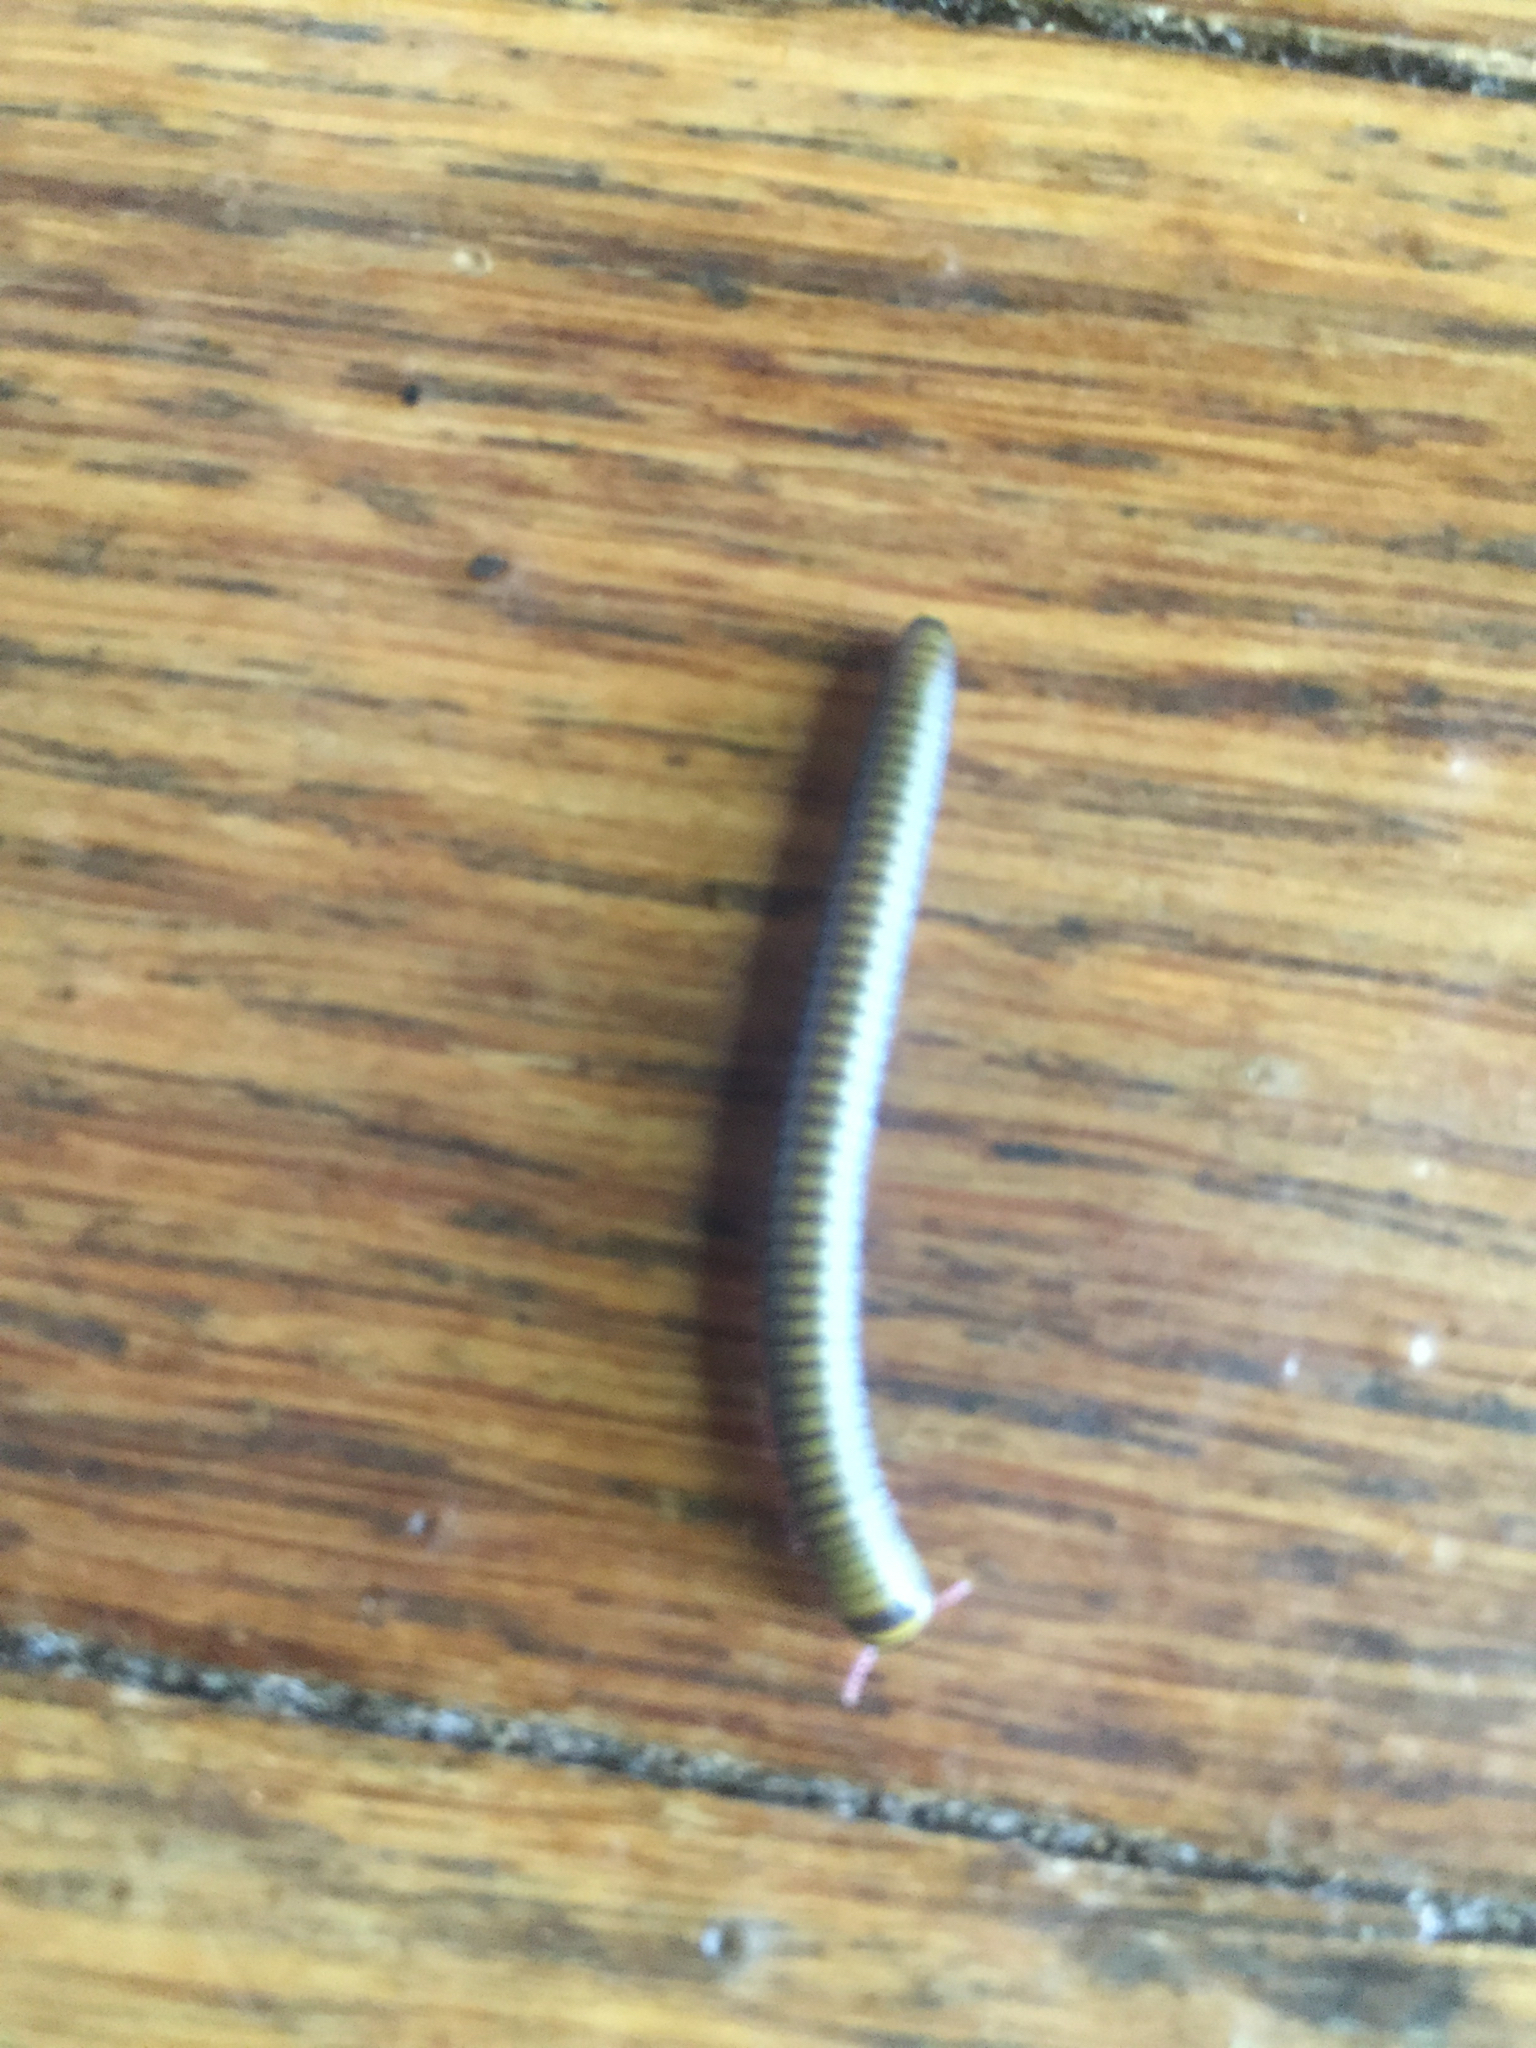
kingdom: Animalia
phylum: Arthropoda
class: Diplopoda
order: Spirobolida
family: Rhinocricidae
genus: Anadenobolus
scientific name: Anadenobolus monilicornis
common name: Caribbean millipede
